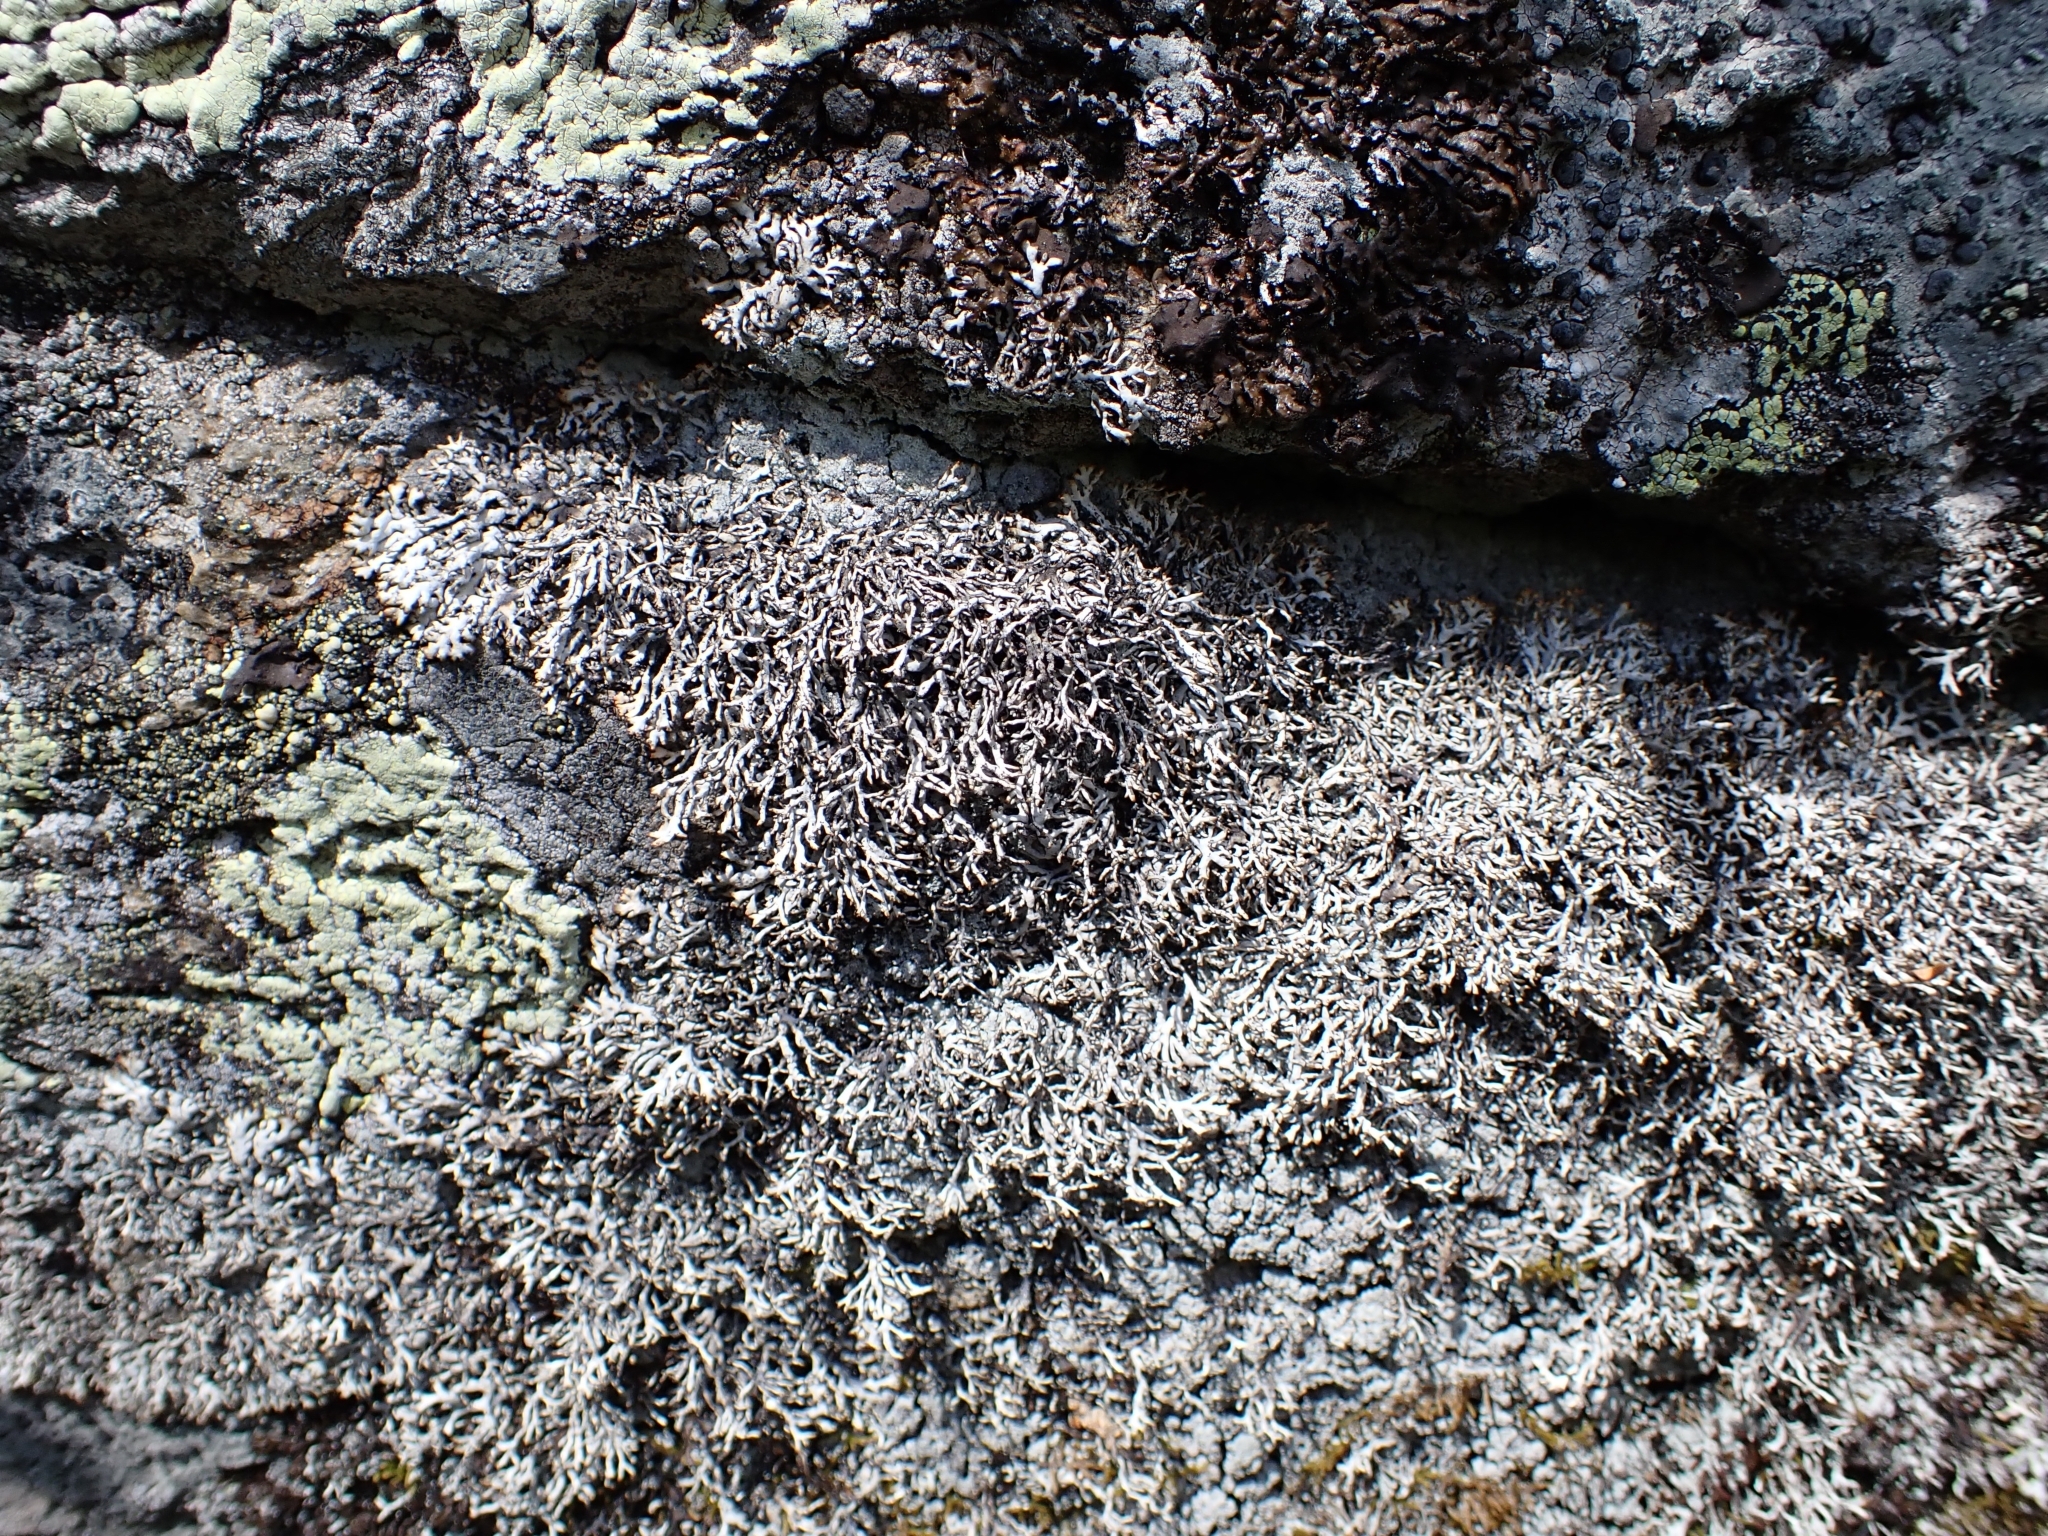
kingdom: Fungi
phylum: Ascomycota
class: Lecanoromycetes
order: Lecanorales
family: Parmeliaceae
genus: Brodoa
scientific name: Brodoa intestiniformis
